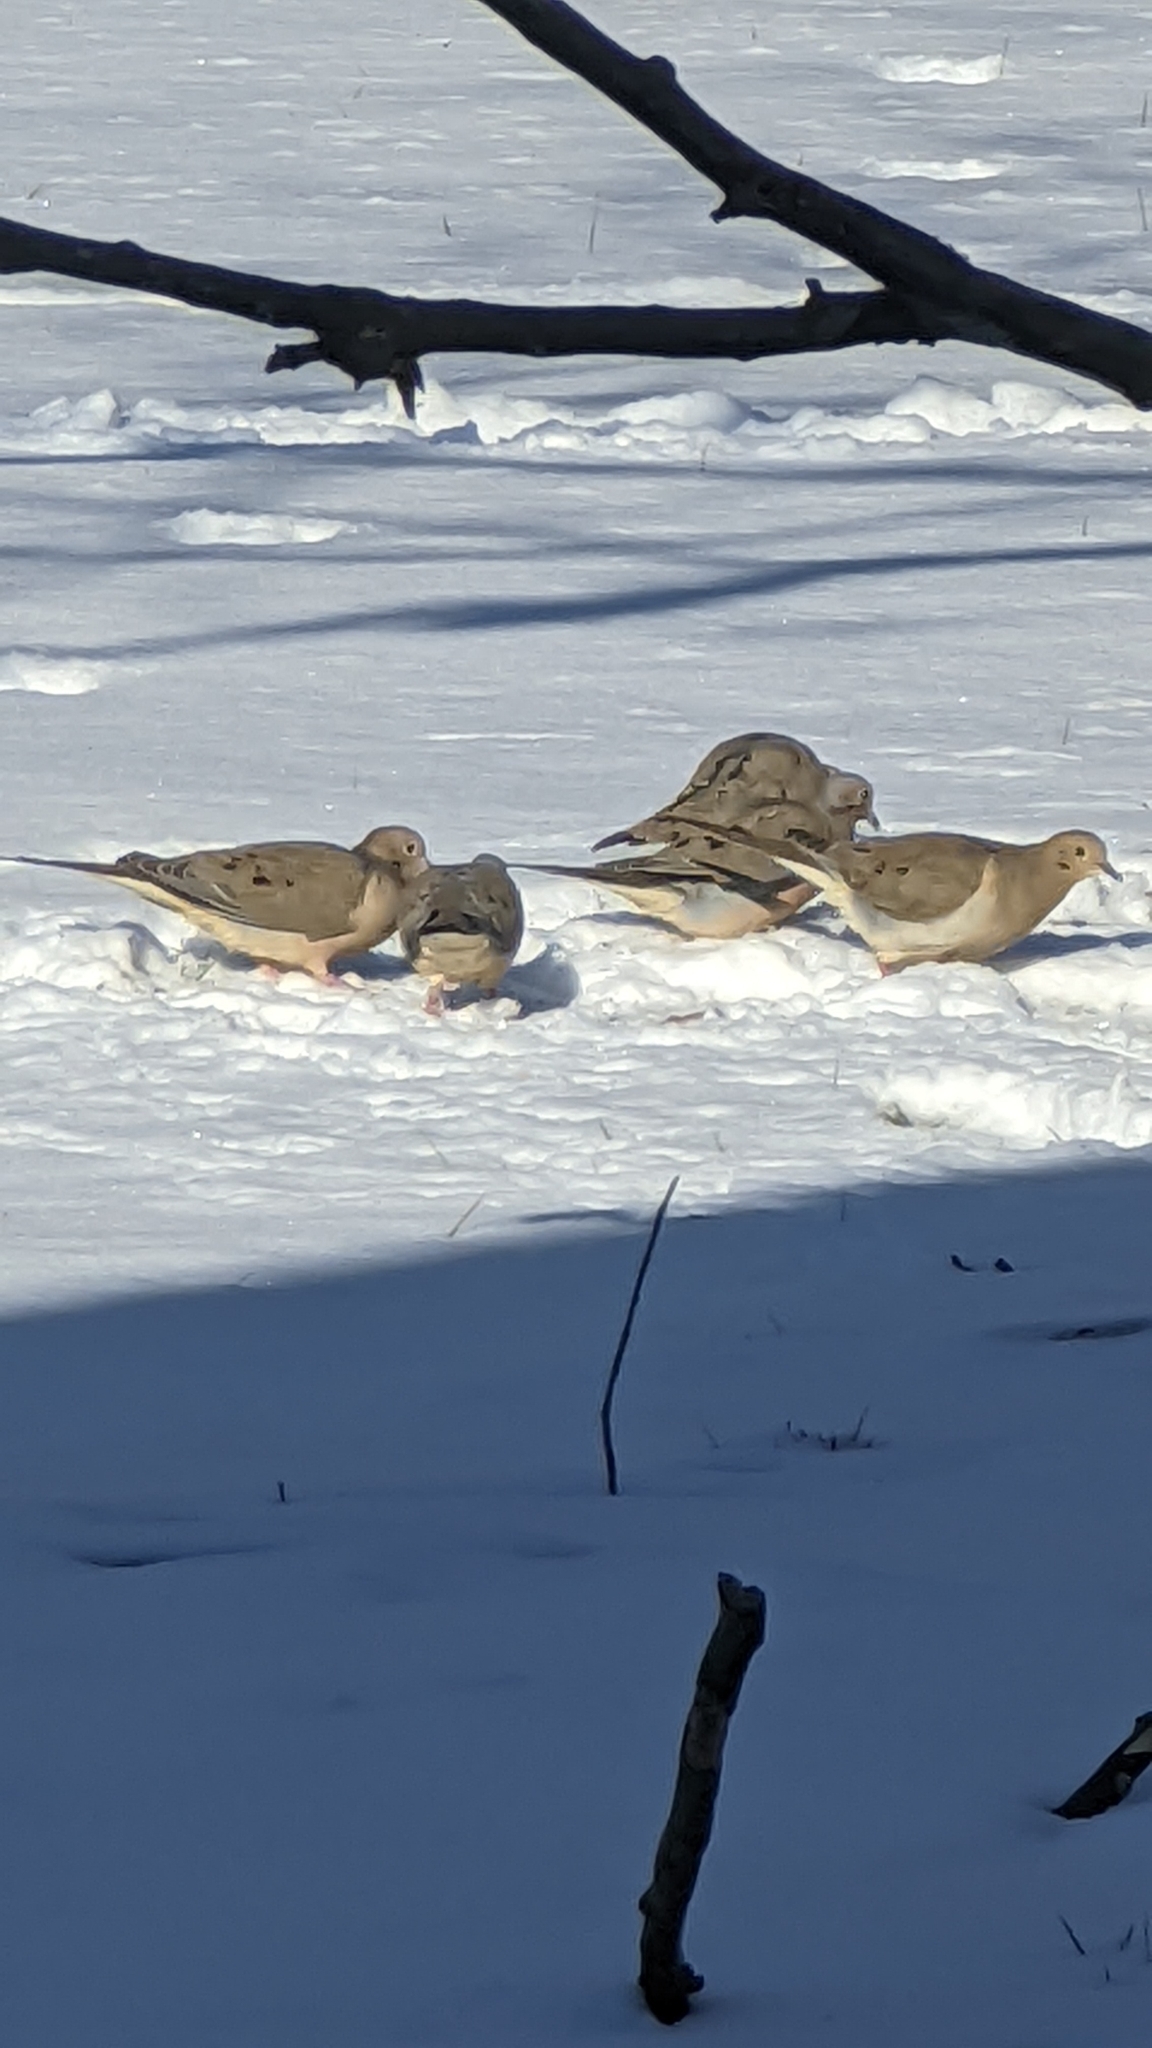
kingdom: Animalia
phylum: Chordata
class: Aves
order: Columbiformes
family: Columbidae
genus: Zenaida
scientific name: Zenaida macroura
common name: Mourning dove
